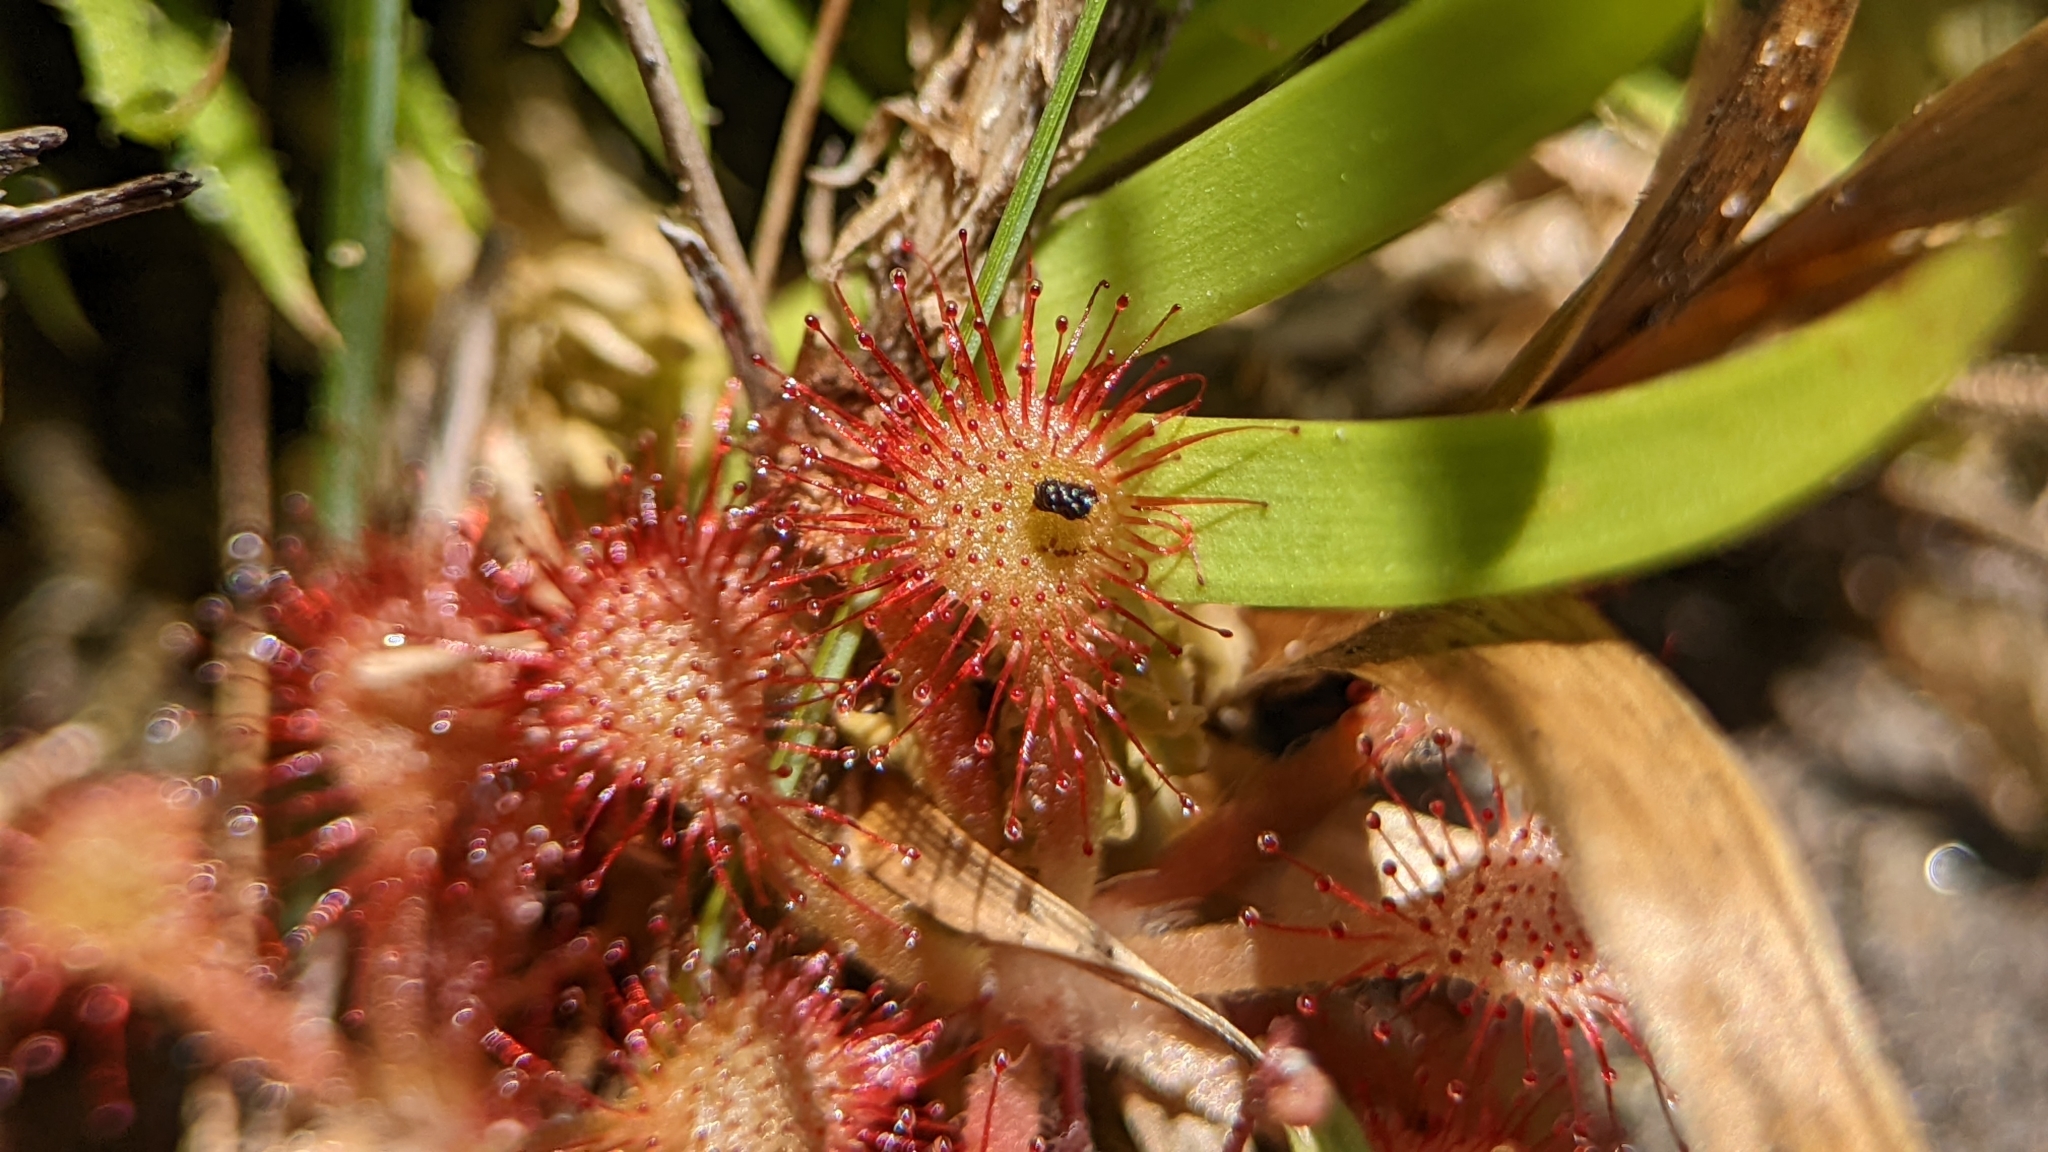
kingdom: Plantae
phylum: Tracheophyta
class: Magnoliopsida
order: Caryophyllales
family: Droseraceae
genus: Drosera
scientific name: Drosera capillaris
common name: Pink sundew
